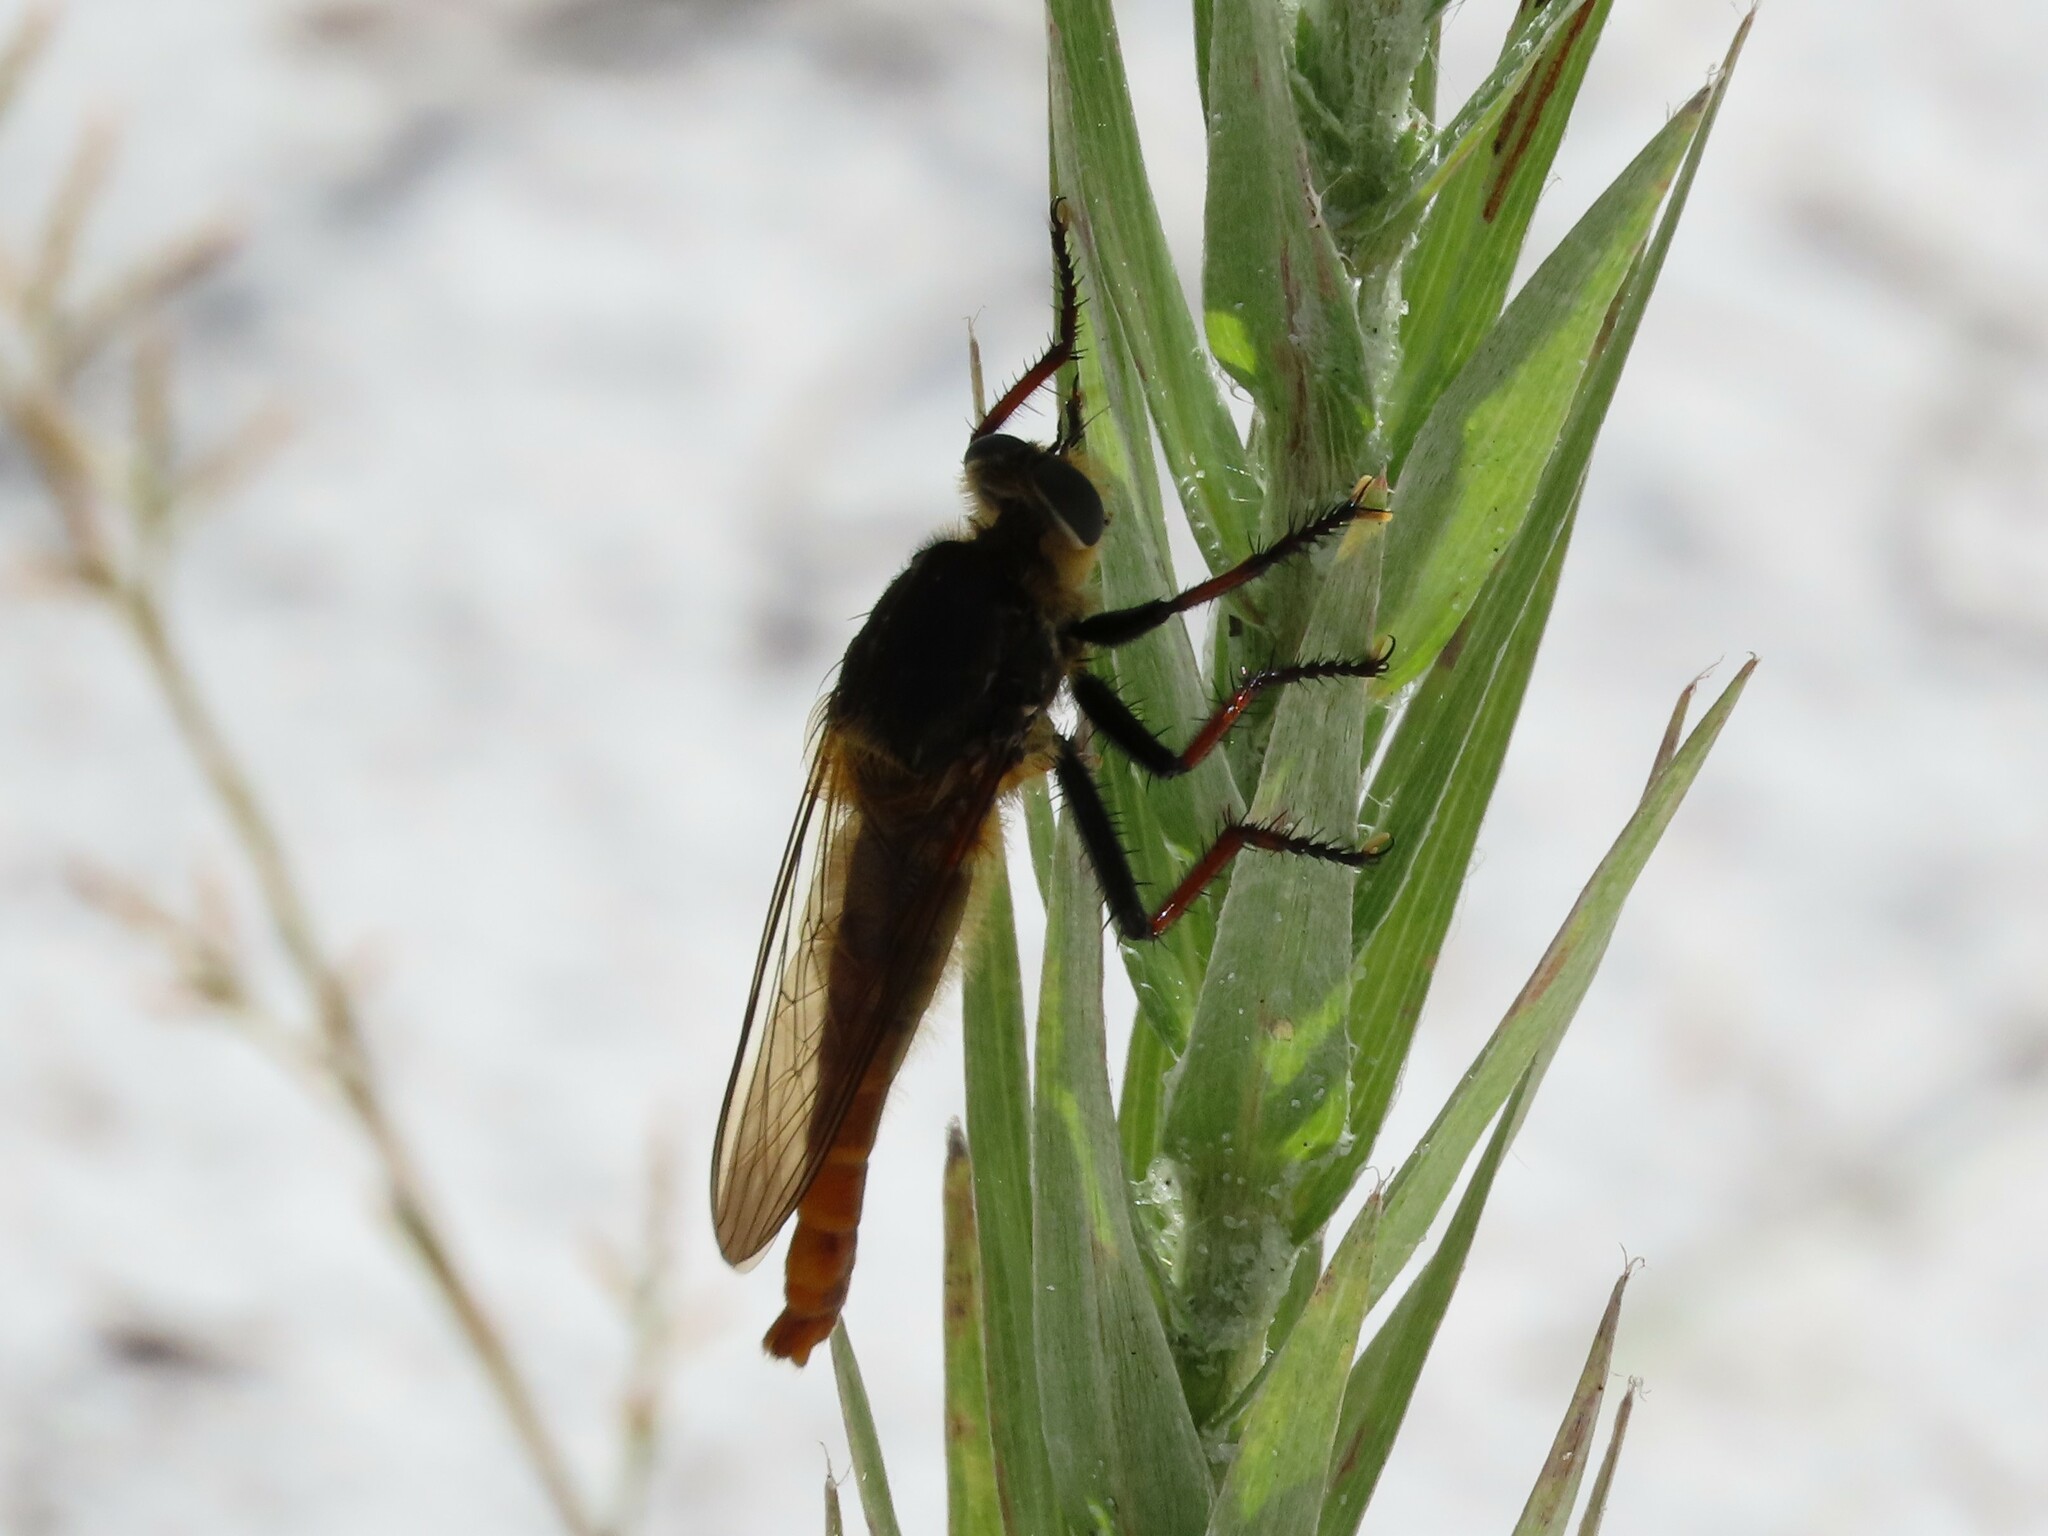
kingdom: Animalia
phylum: Arthropoda
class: Insecta
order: Diptera
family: Asilidae
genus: Proctacanthus
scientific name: Proctacanthus fulviventris
